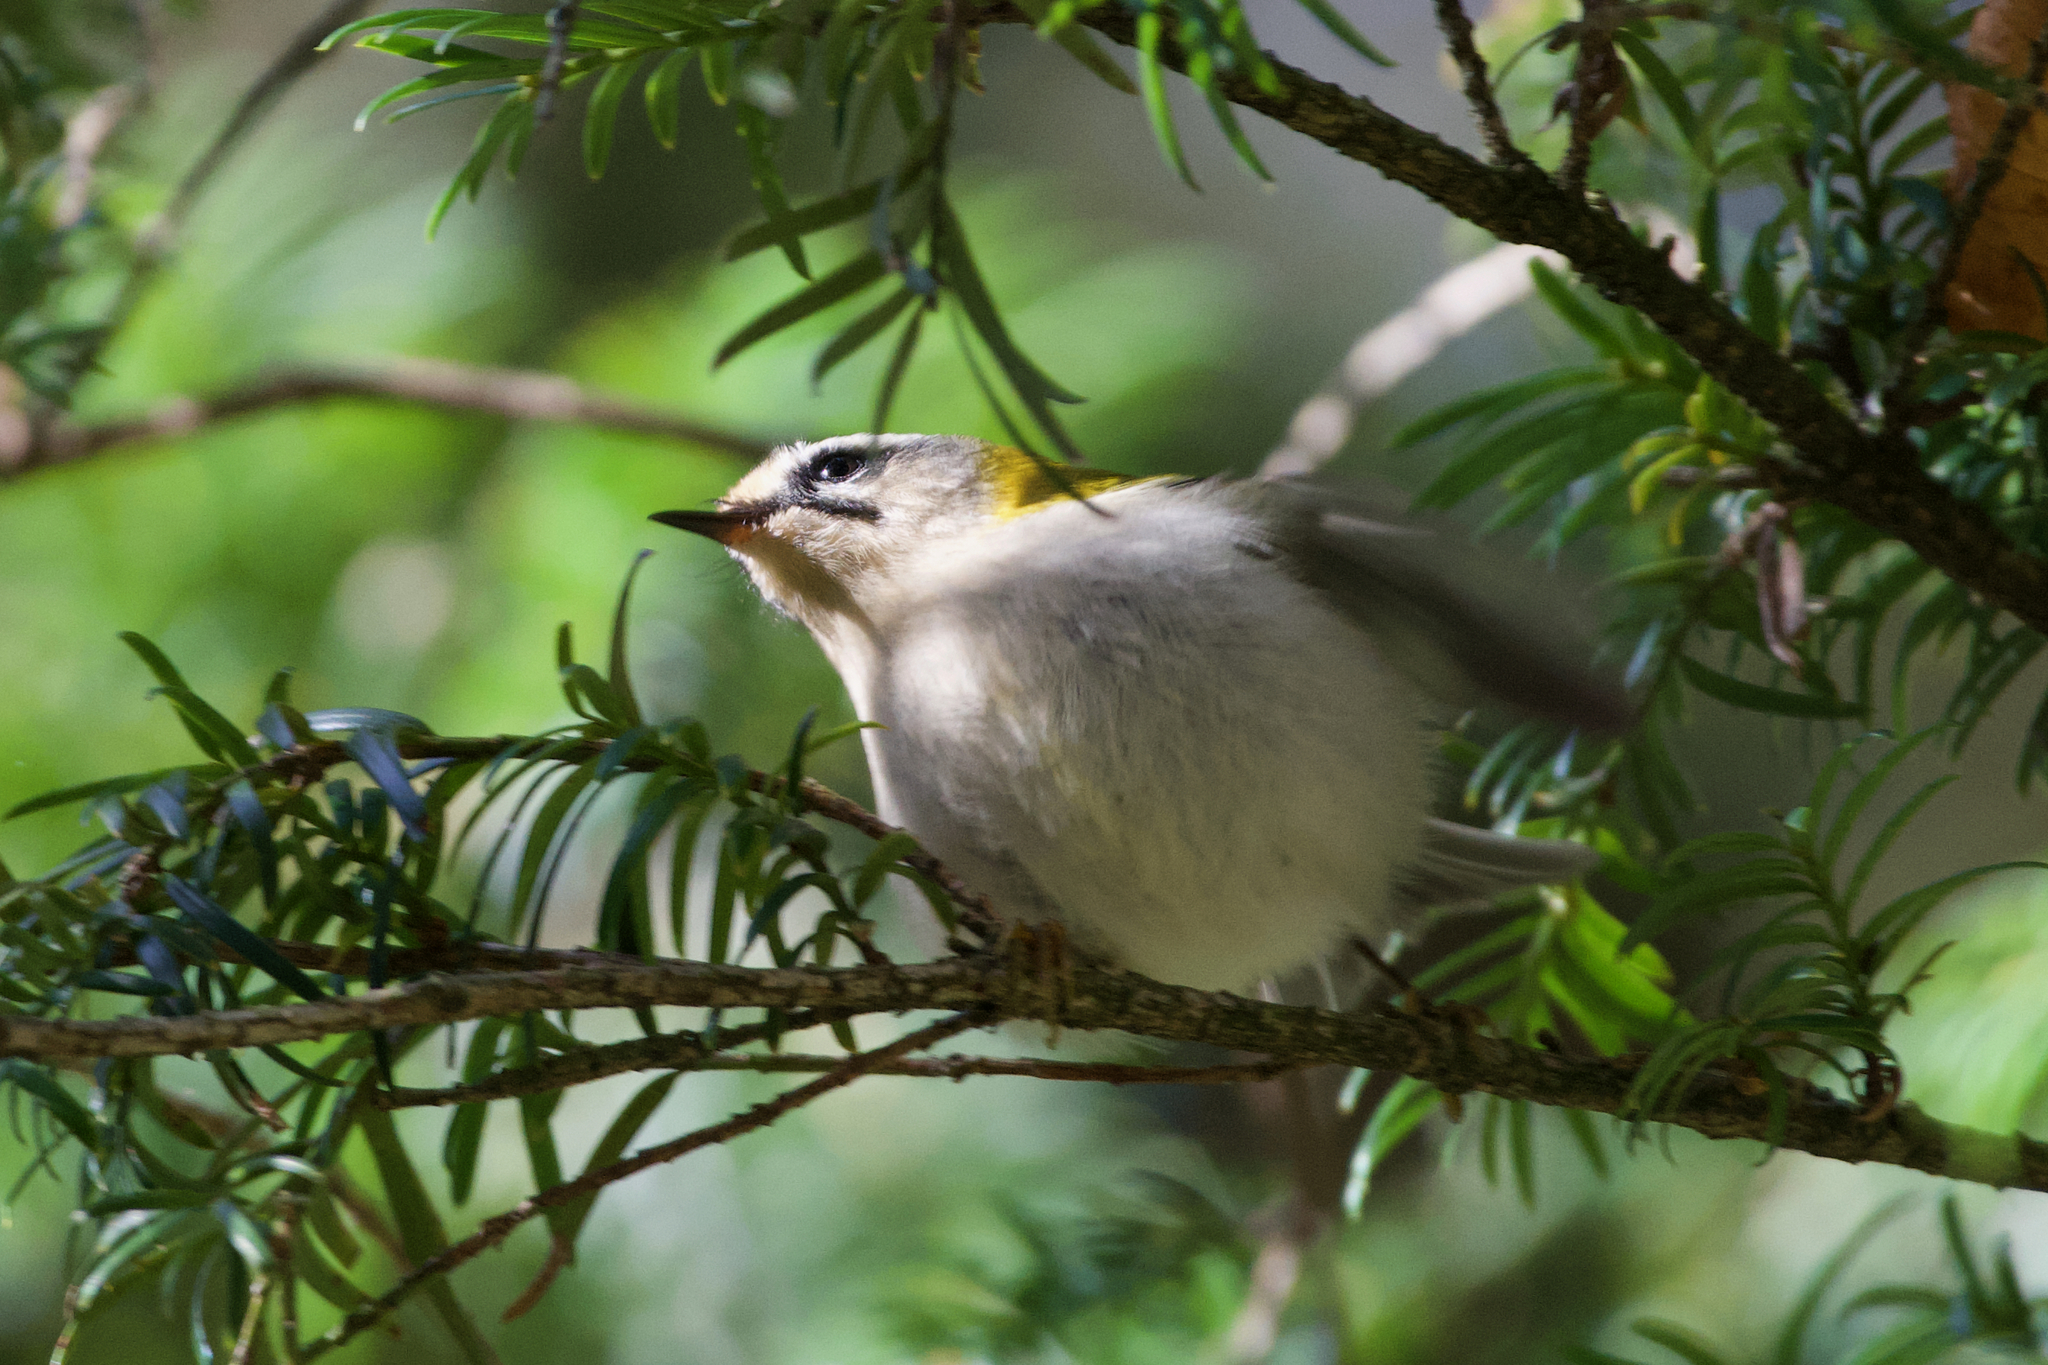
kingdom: Animalia
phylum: Chordata
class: Aves
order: Passeriformes
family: Regulidae
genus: Regulus
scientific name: Regulus ignicapilla
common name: Firecrest
